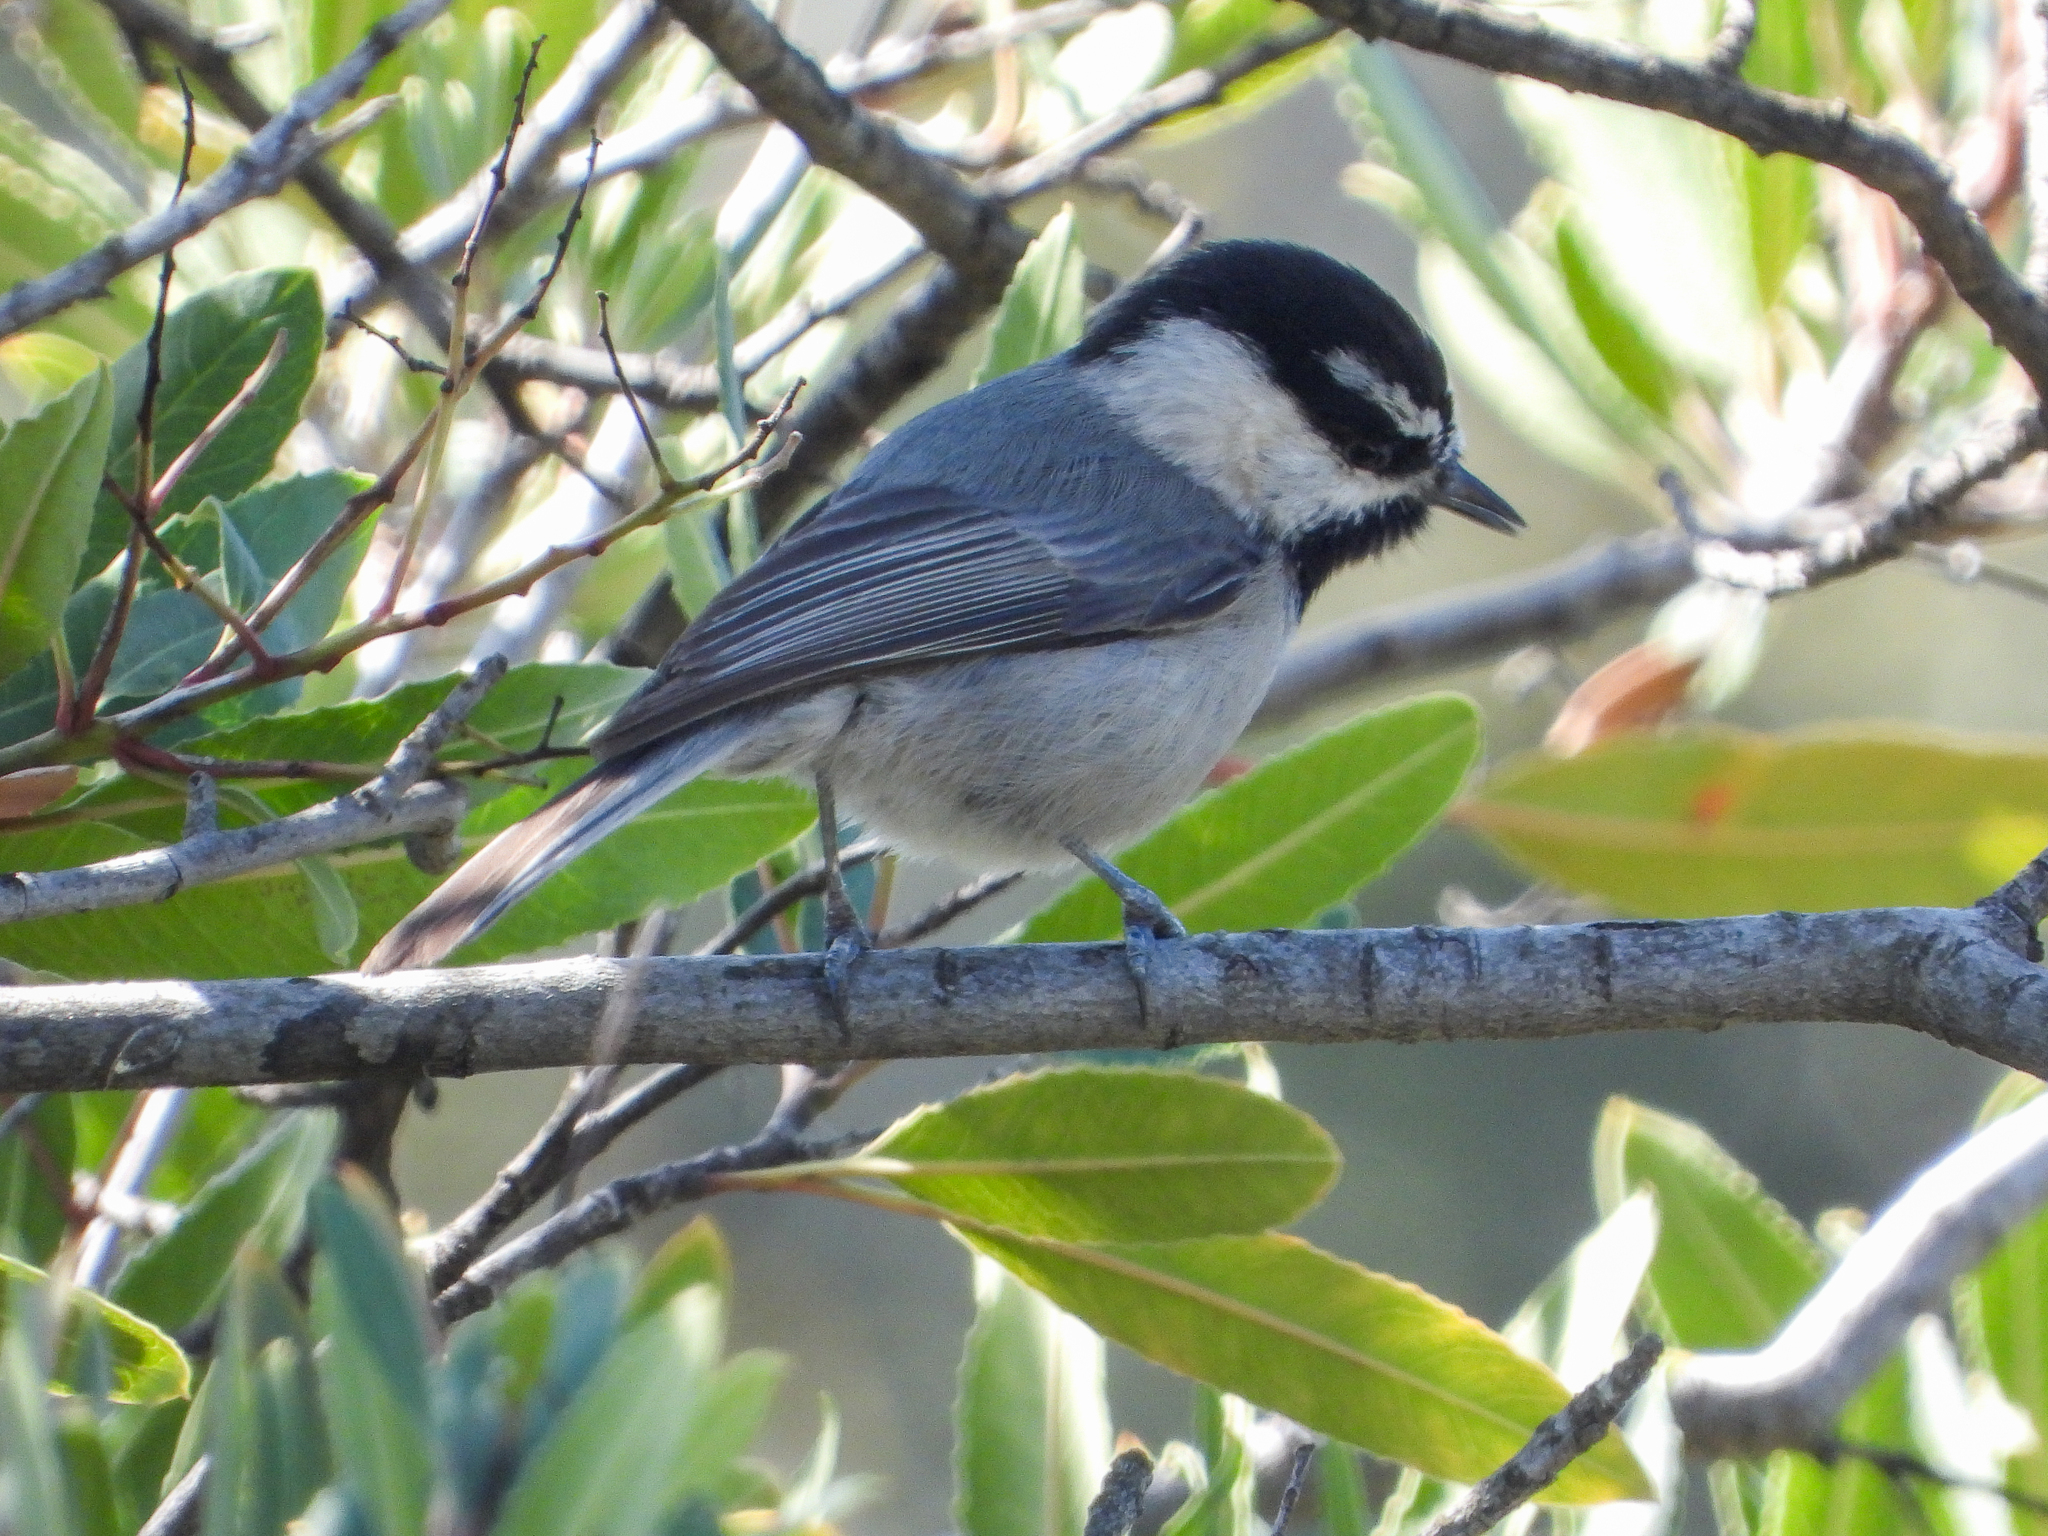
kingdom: Animalia
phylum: Chordata
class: Aves
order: Passeriformes
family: Paridae
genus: Poecile
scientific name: Poecile gambeli
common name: Mountain chickadee
